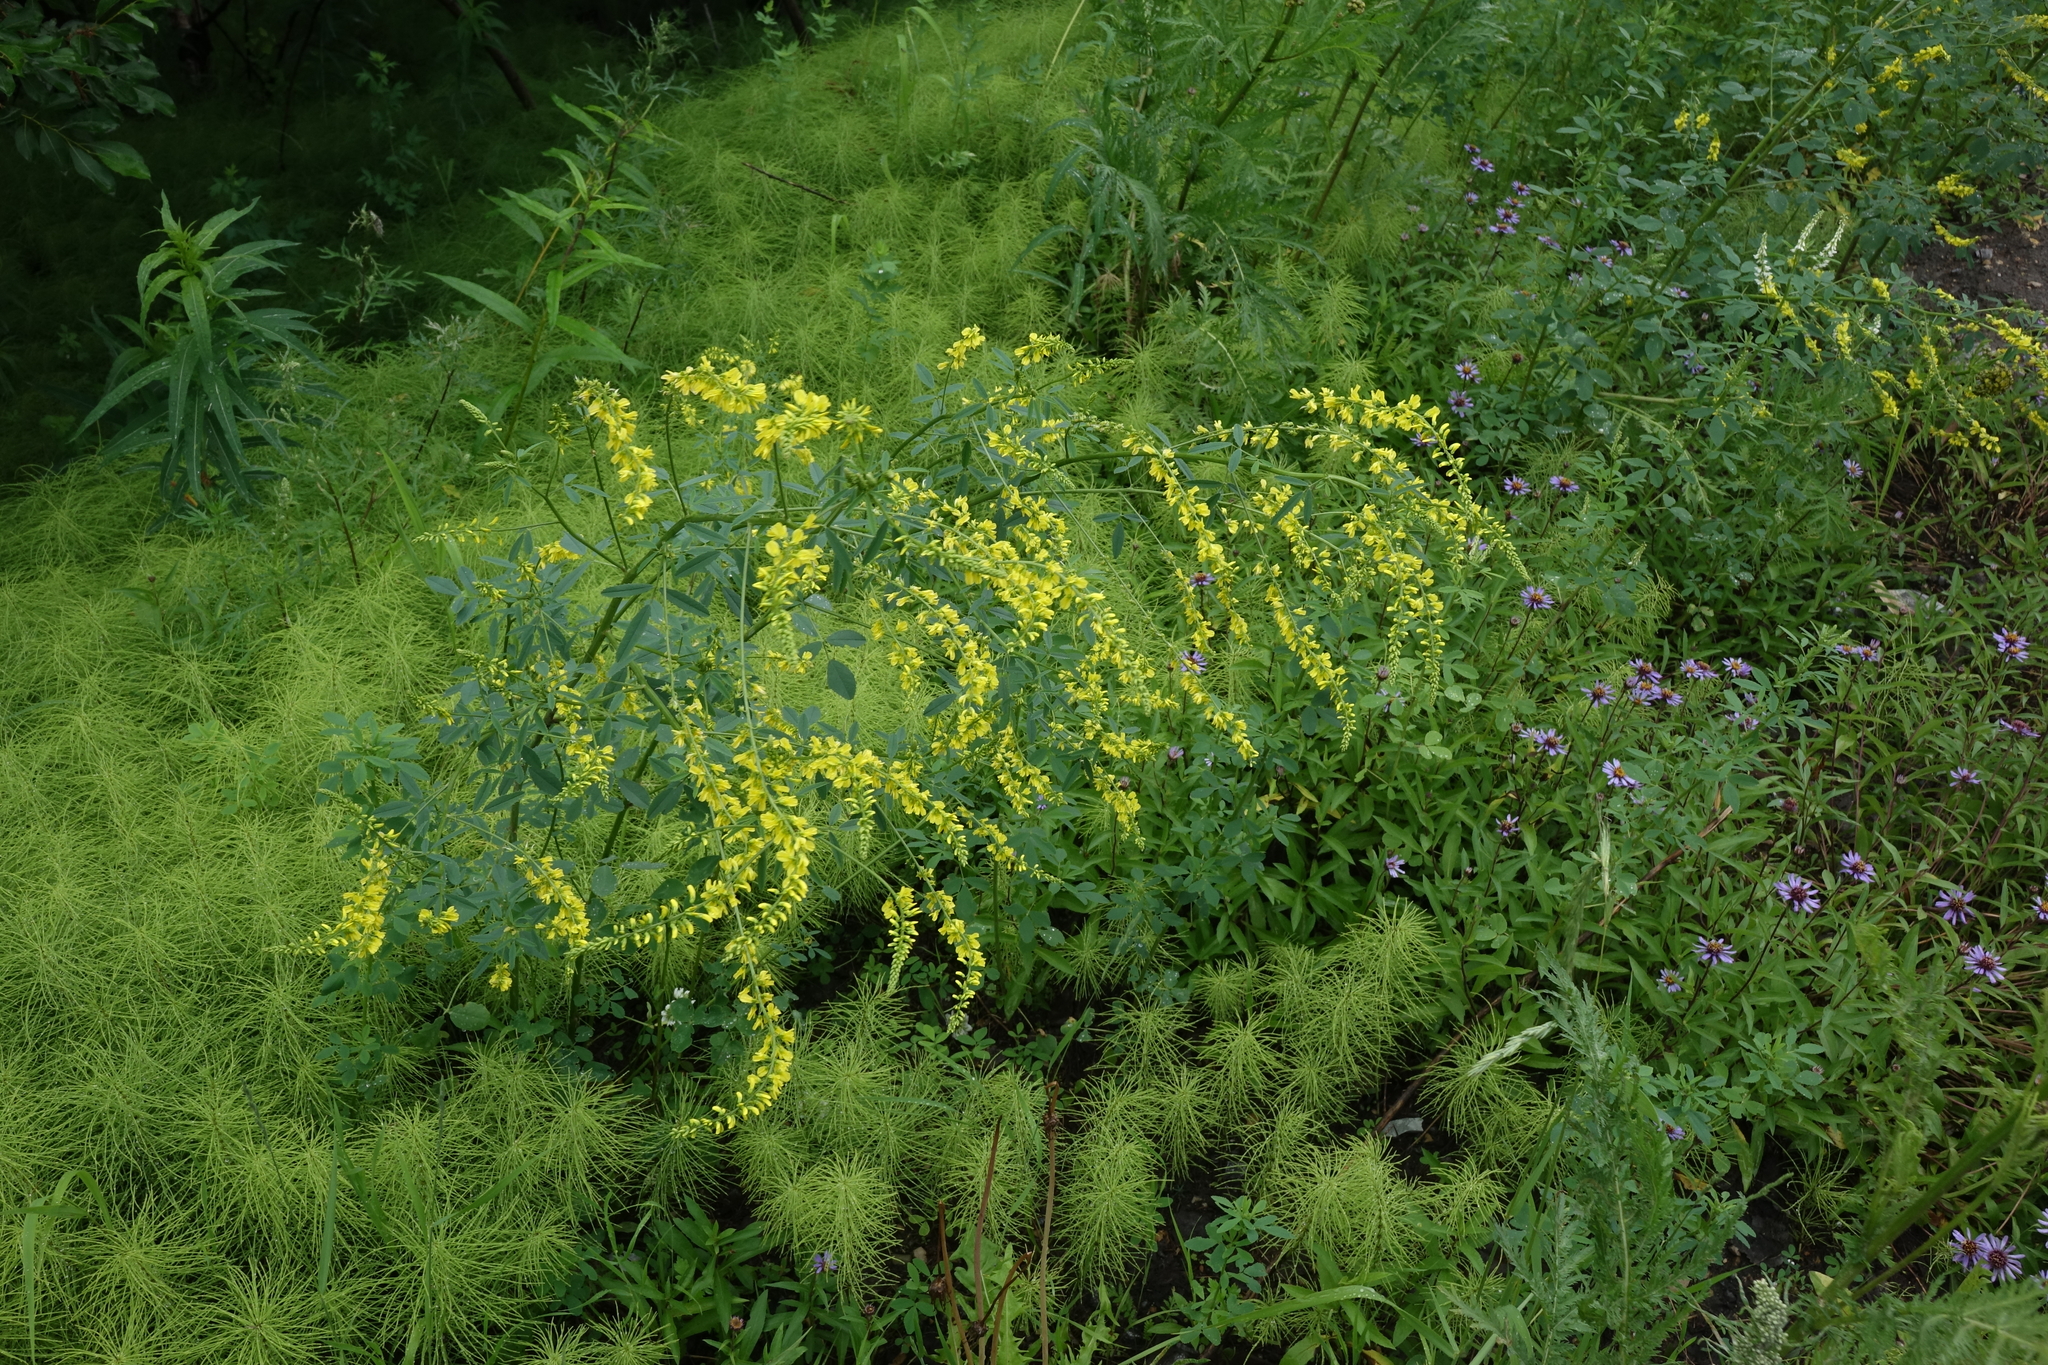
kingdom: Plantae
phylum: Tracheophyta
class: Magnoliopsida
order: Fabales
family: Fabaceae
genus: Melilotus
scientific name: Melilotus officinalis
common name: Sweetclover
